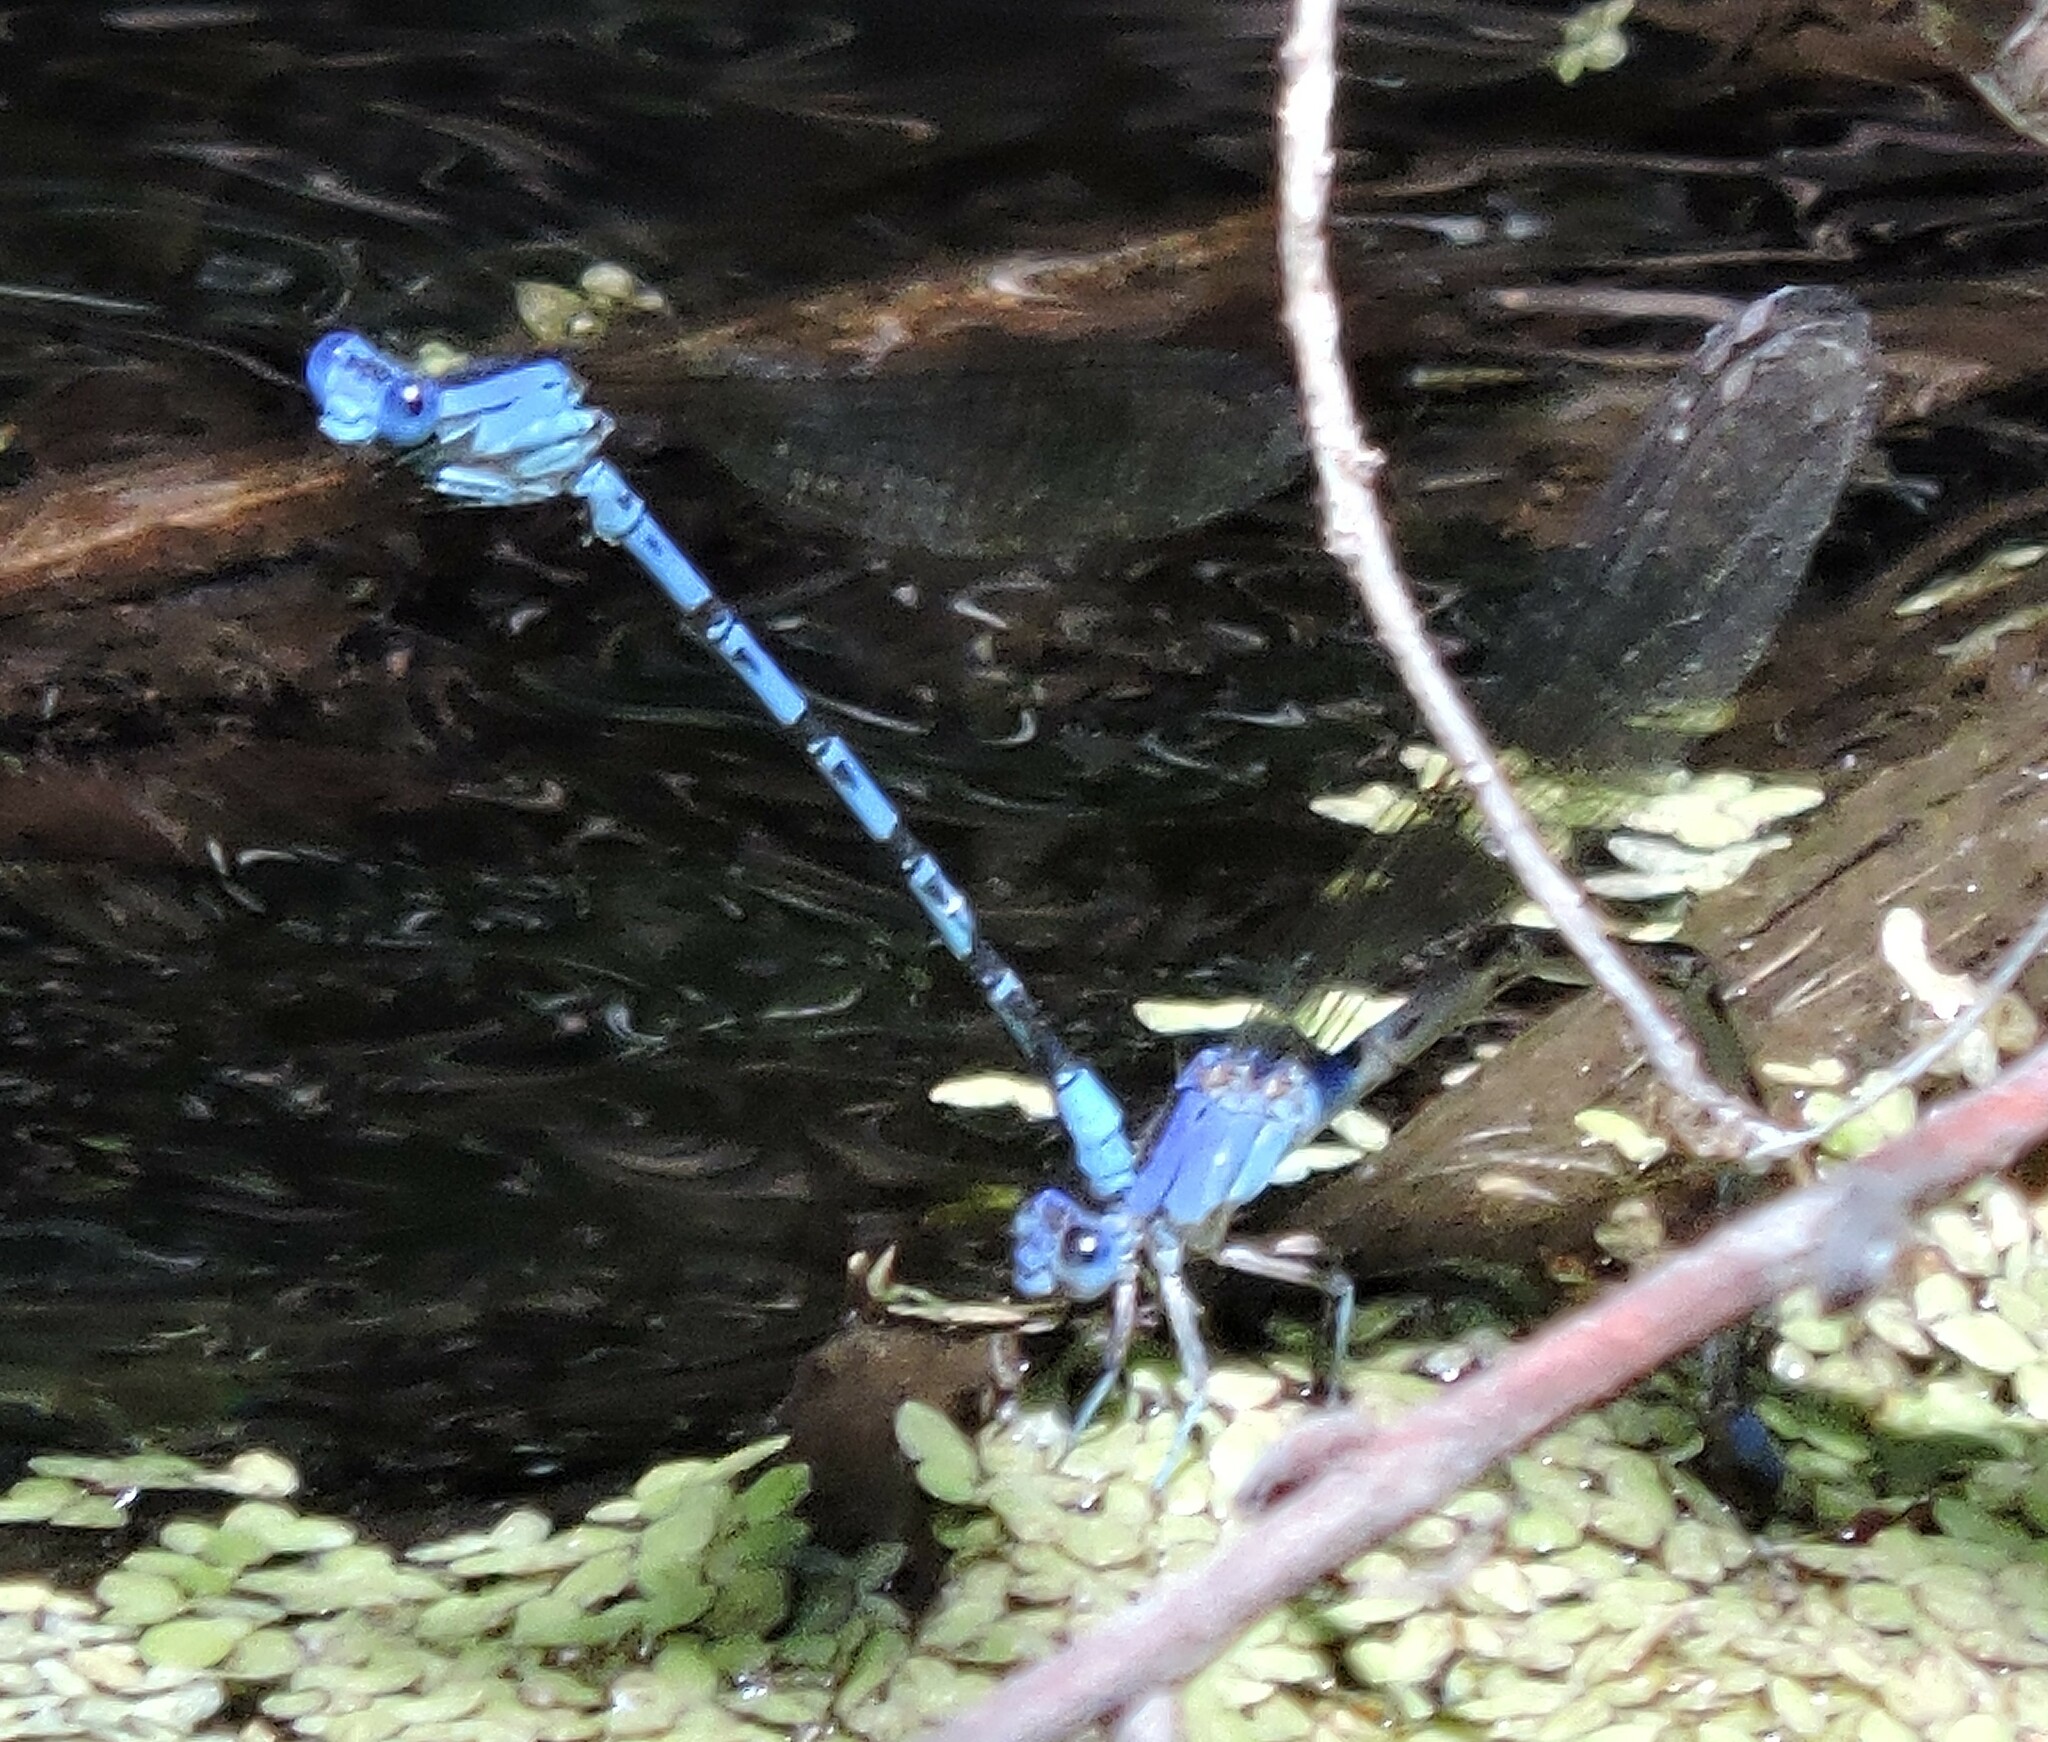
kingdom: Animalia
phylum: Arthropoda
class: Insecta
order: Odonata
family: Coenagrionidae
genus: Argia
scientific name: Argia vivida
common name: Vivid dancer
